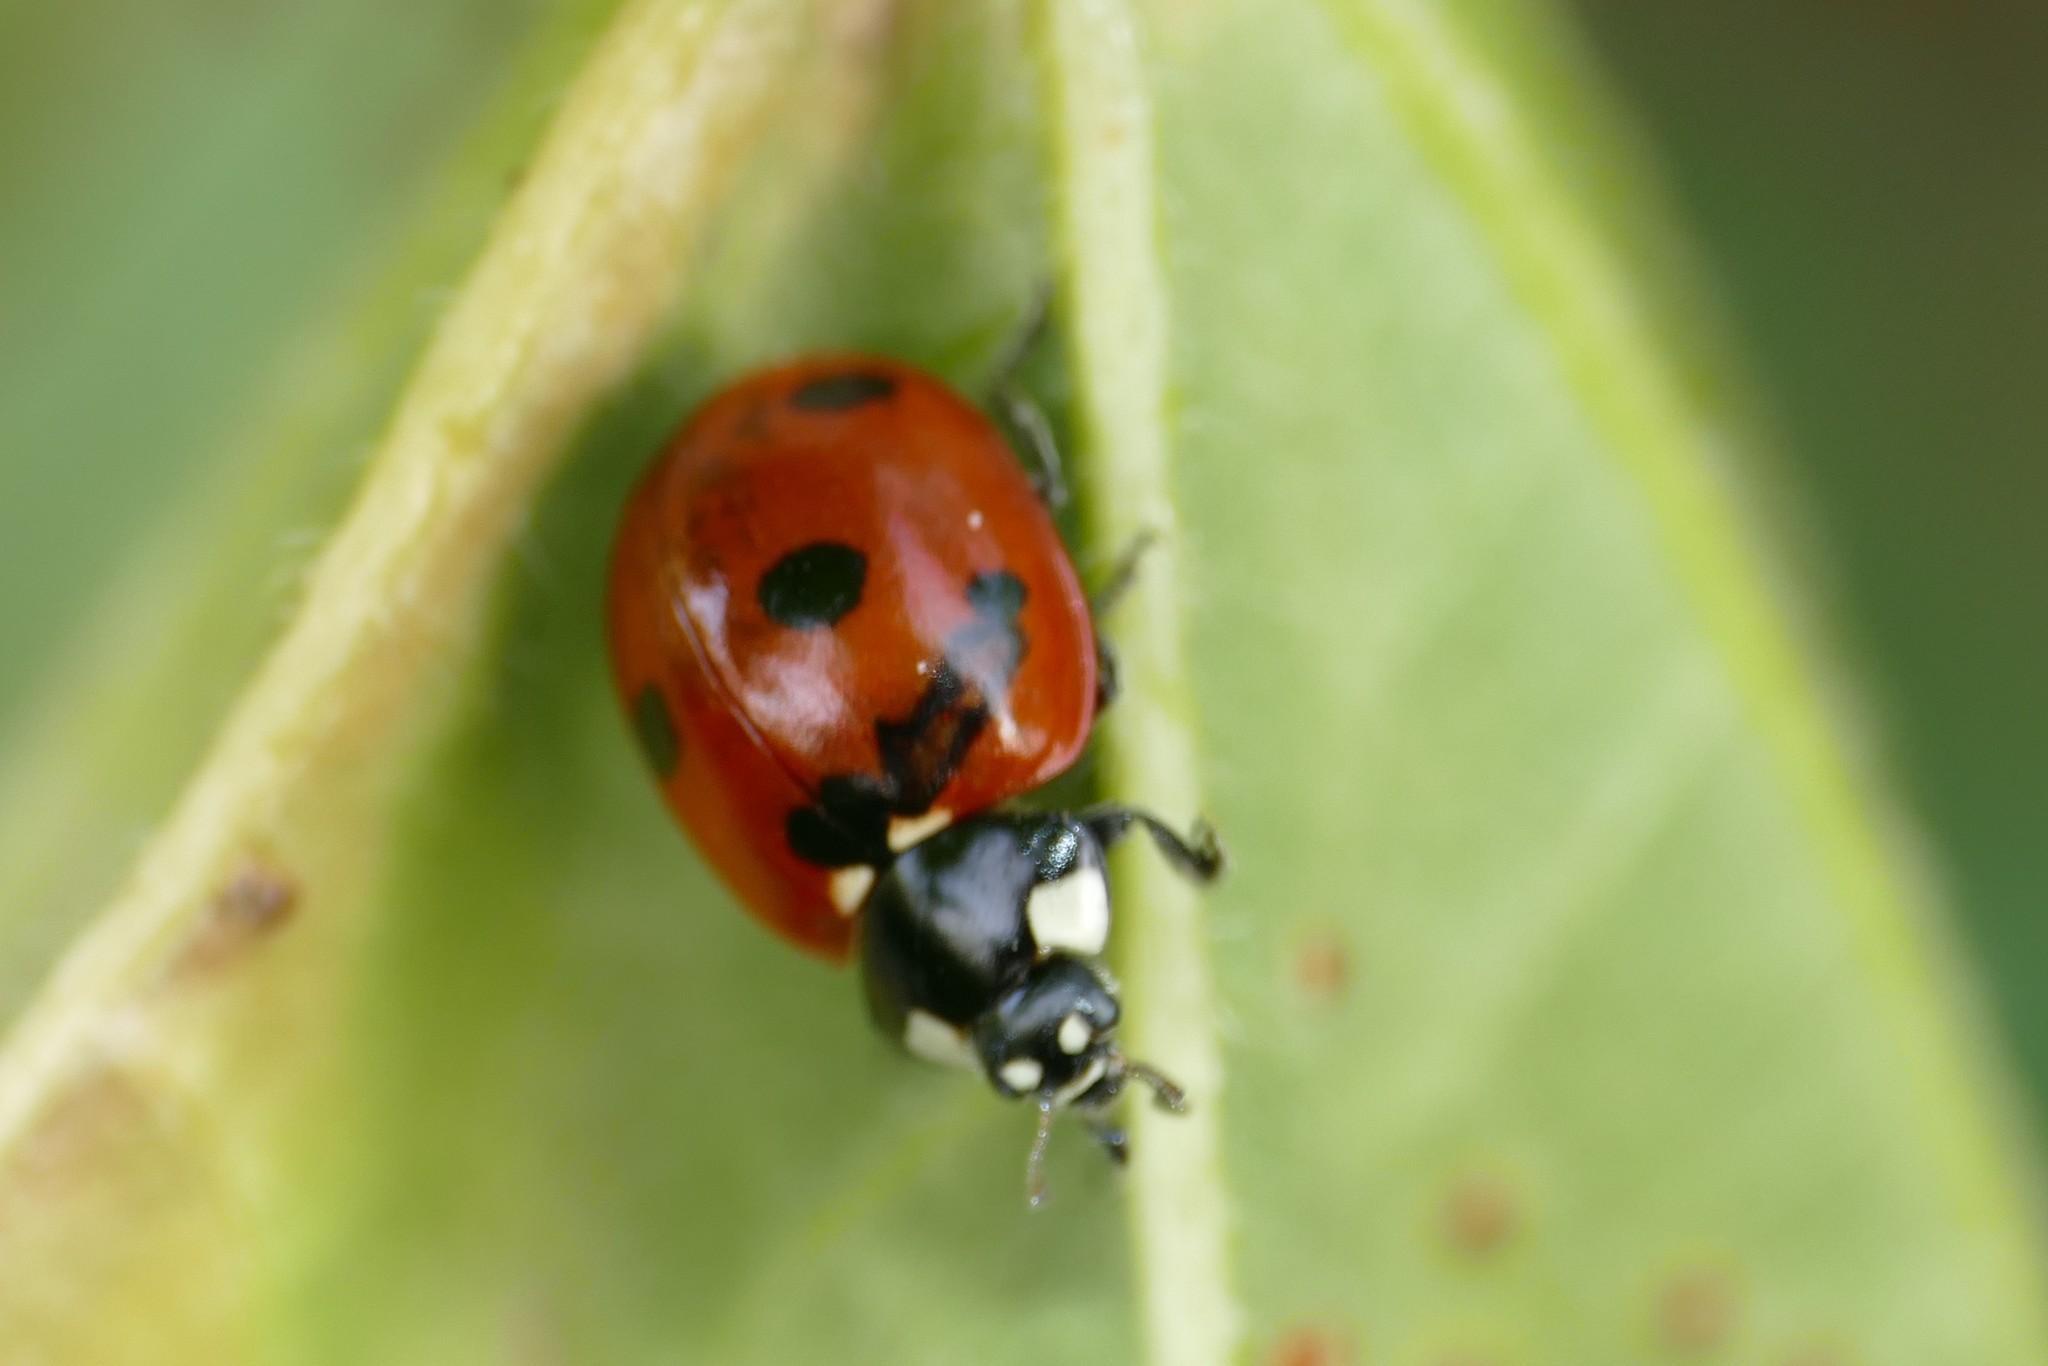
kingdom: Animalia
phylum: Arthropoda
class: Insecta
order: Coleoptera
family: Coccinellidae
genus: Coccinella
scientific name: Coccinella septempunctata
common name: Sevenspotted lady beetle
